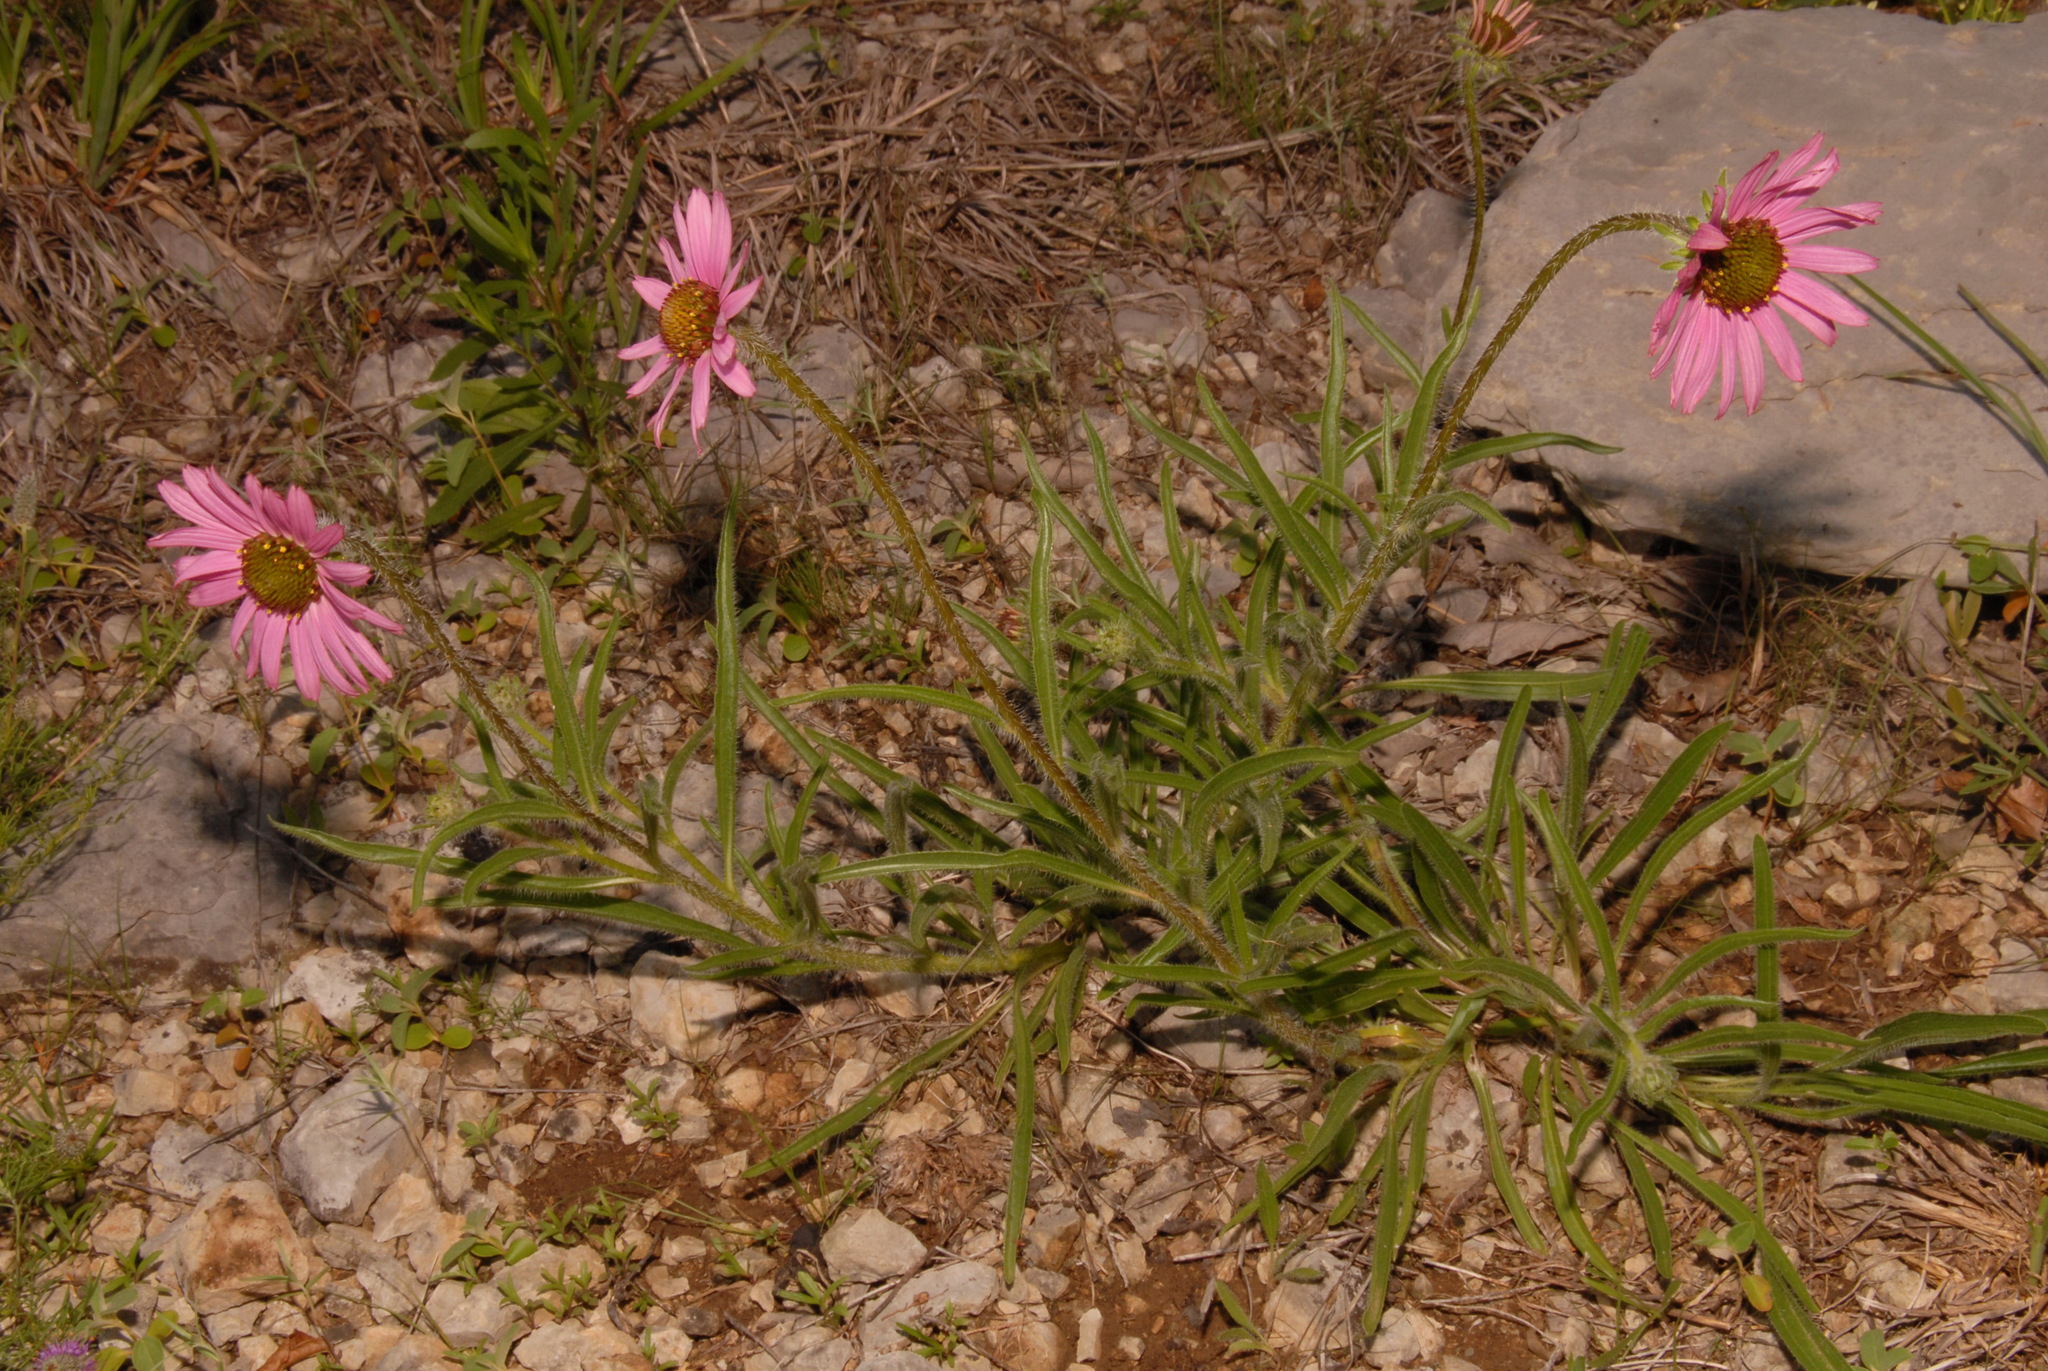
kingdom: Plantae
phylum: Tracheophyta
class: Magnoliopsida
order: Asterales
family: Asteraceae
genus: Echinacea
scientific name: Echinacea tennesseensis
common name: Tennessee purple-coneflower
